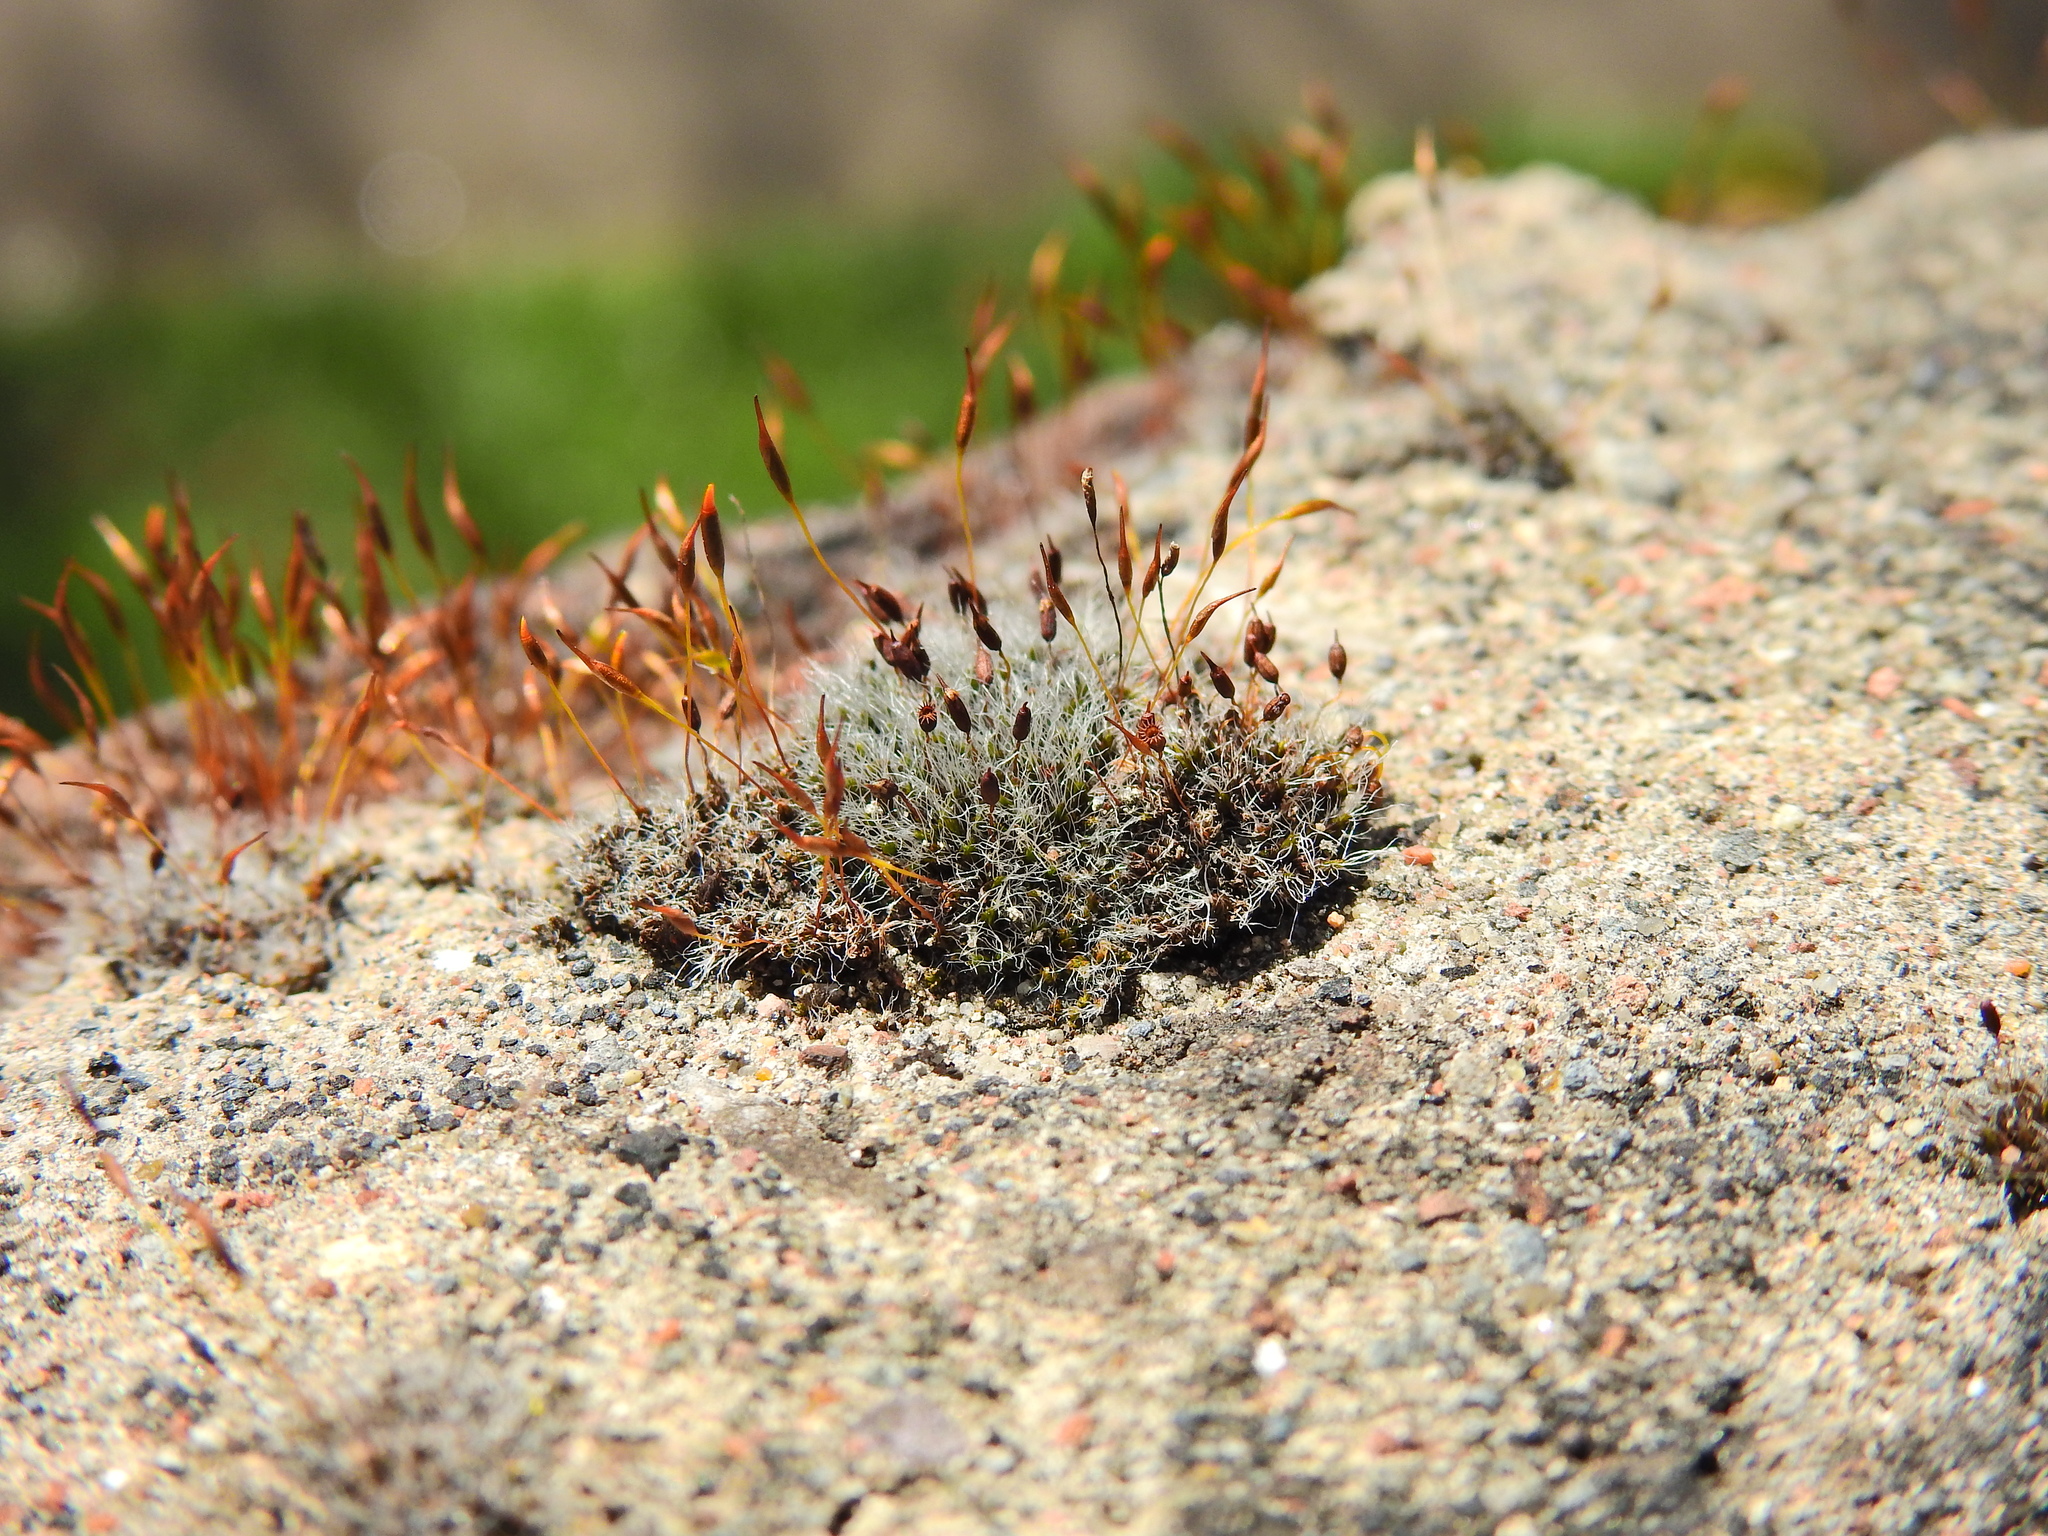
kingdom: Plantae
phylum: Bryophyta
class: Bryopsida
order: Grimmiales
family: Grimmiaceae
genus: Grimmia
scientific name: Grimmia pulvinata
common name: Grey-cushioned grimmia
